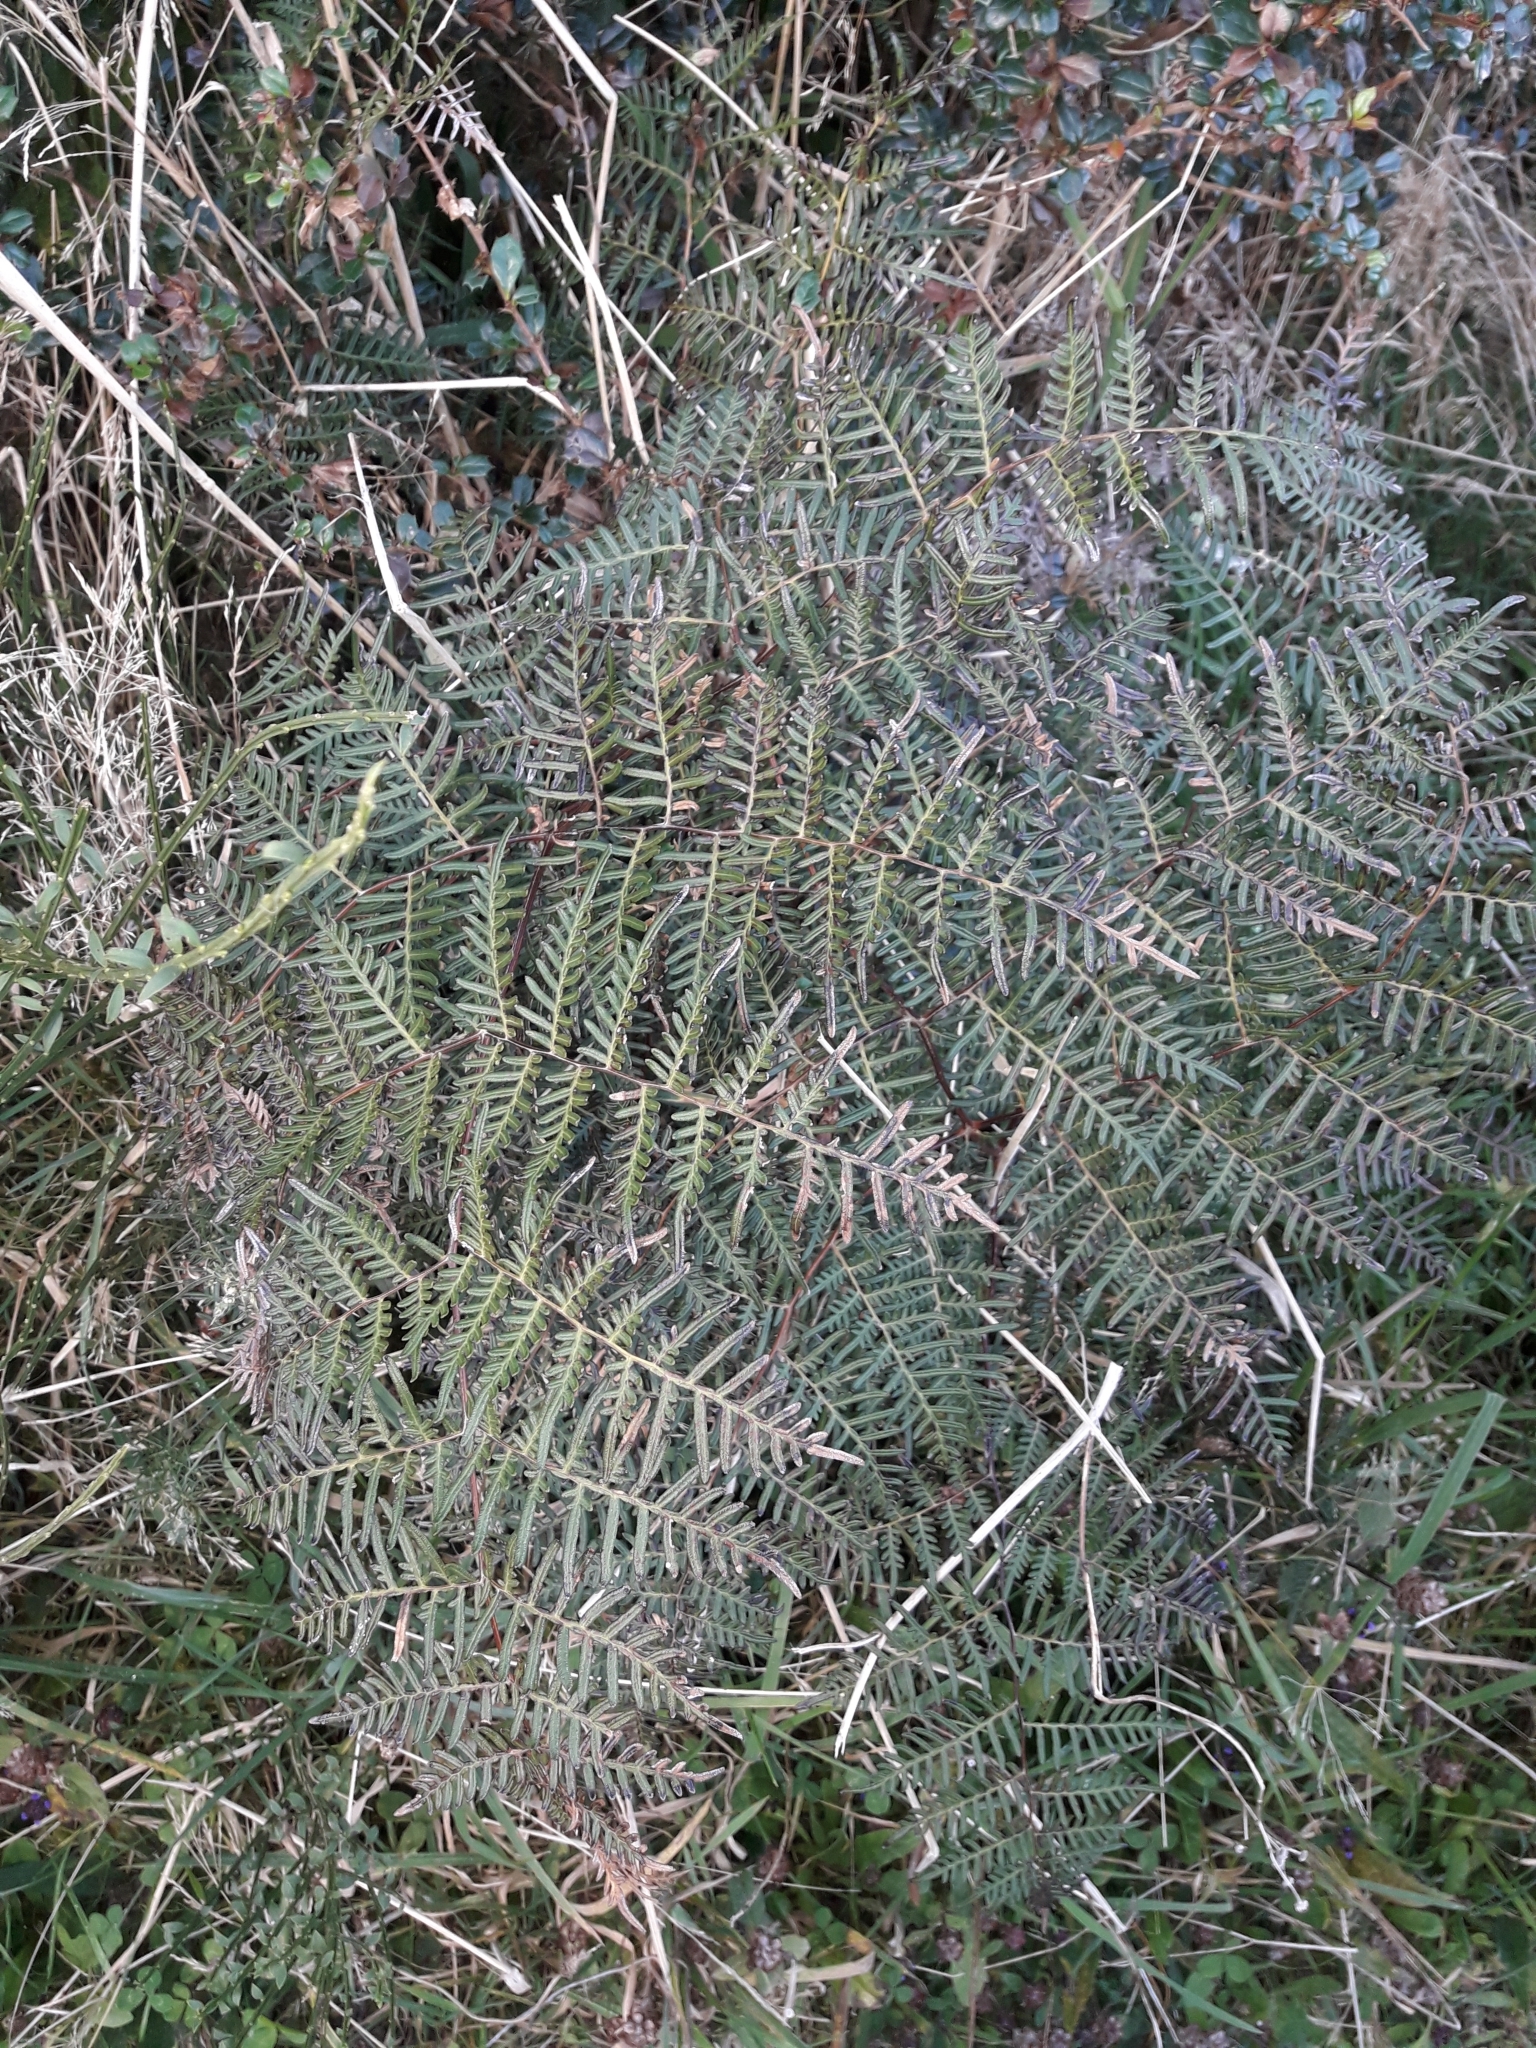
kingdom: Plantae
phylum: Tracheophyta
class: Polypodiopsida
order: Polypodiales
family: Dennstaedtiaceae
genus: Pteridium
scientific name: Pteridium esculentum
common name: Bracken fern
